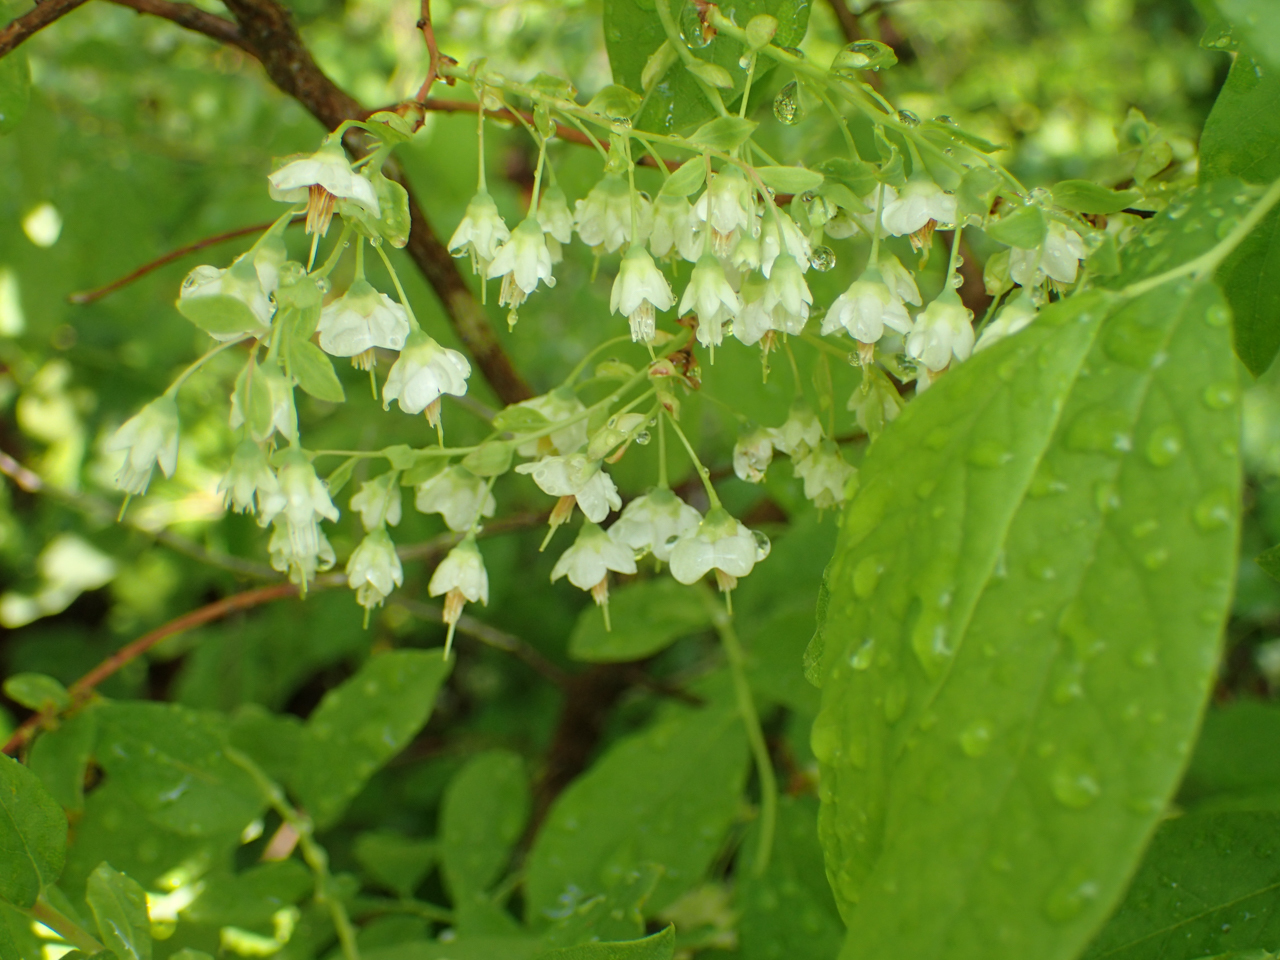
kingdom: Plantae
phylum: Tracheophyta
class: Magnoliopsida
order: Ericales
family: Ericaceae
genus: Vaccinium
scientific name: Vaccinium stamineum
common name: Deerberry
